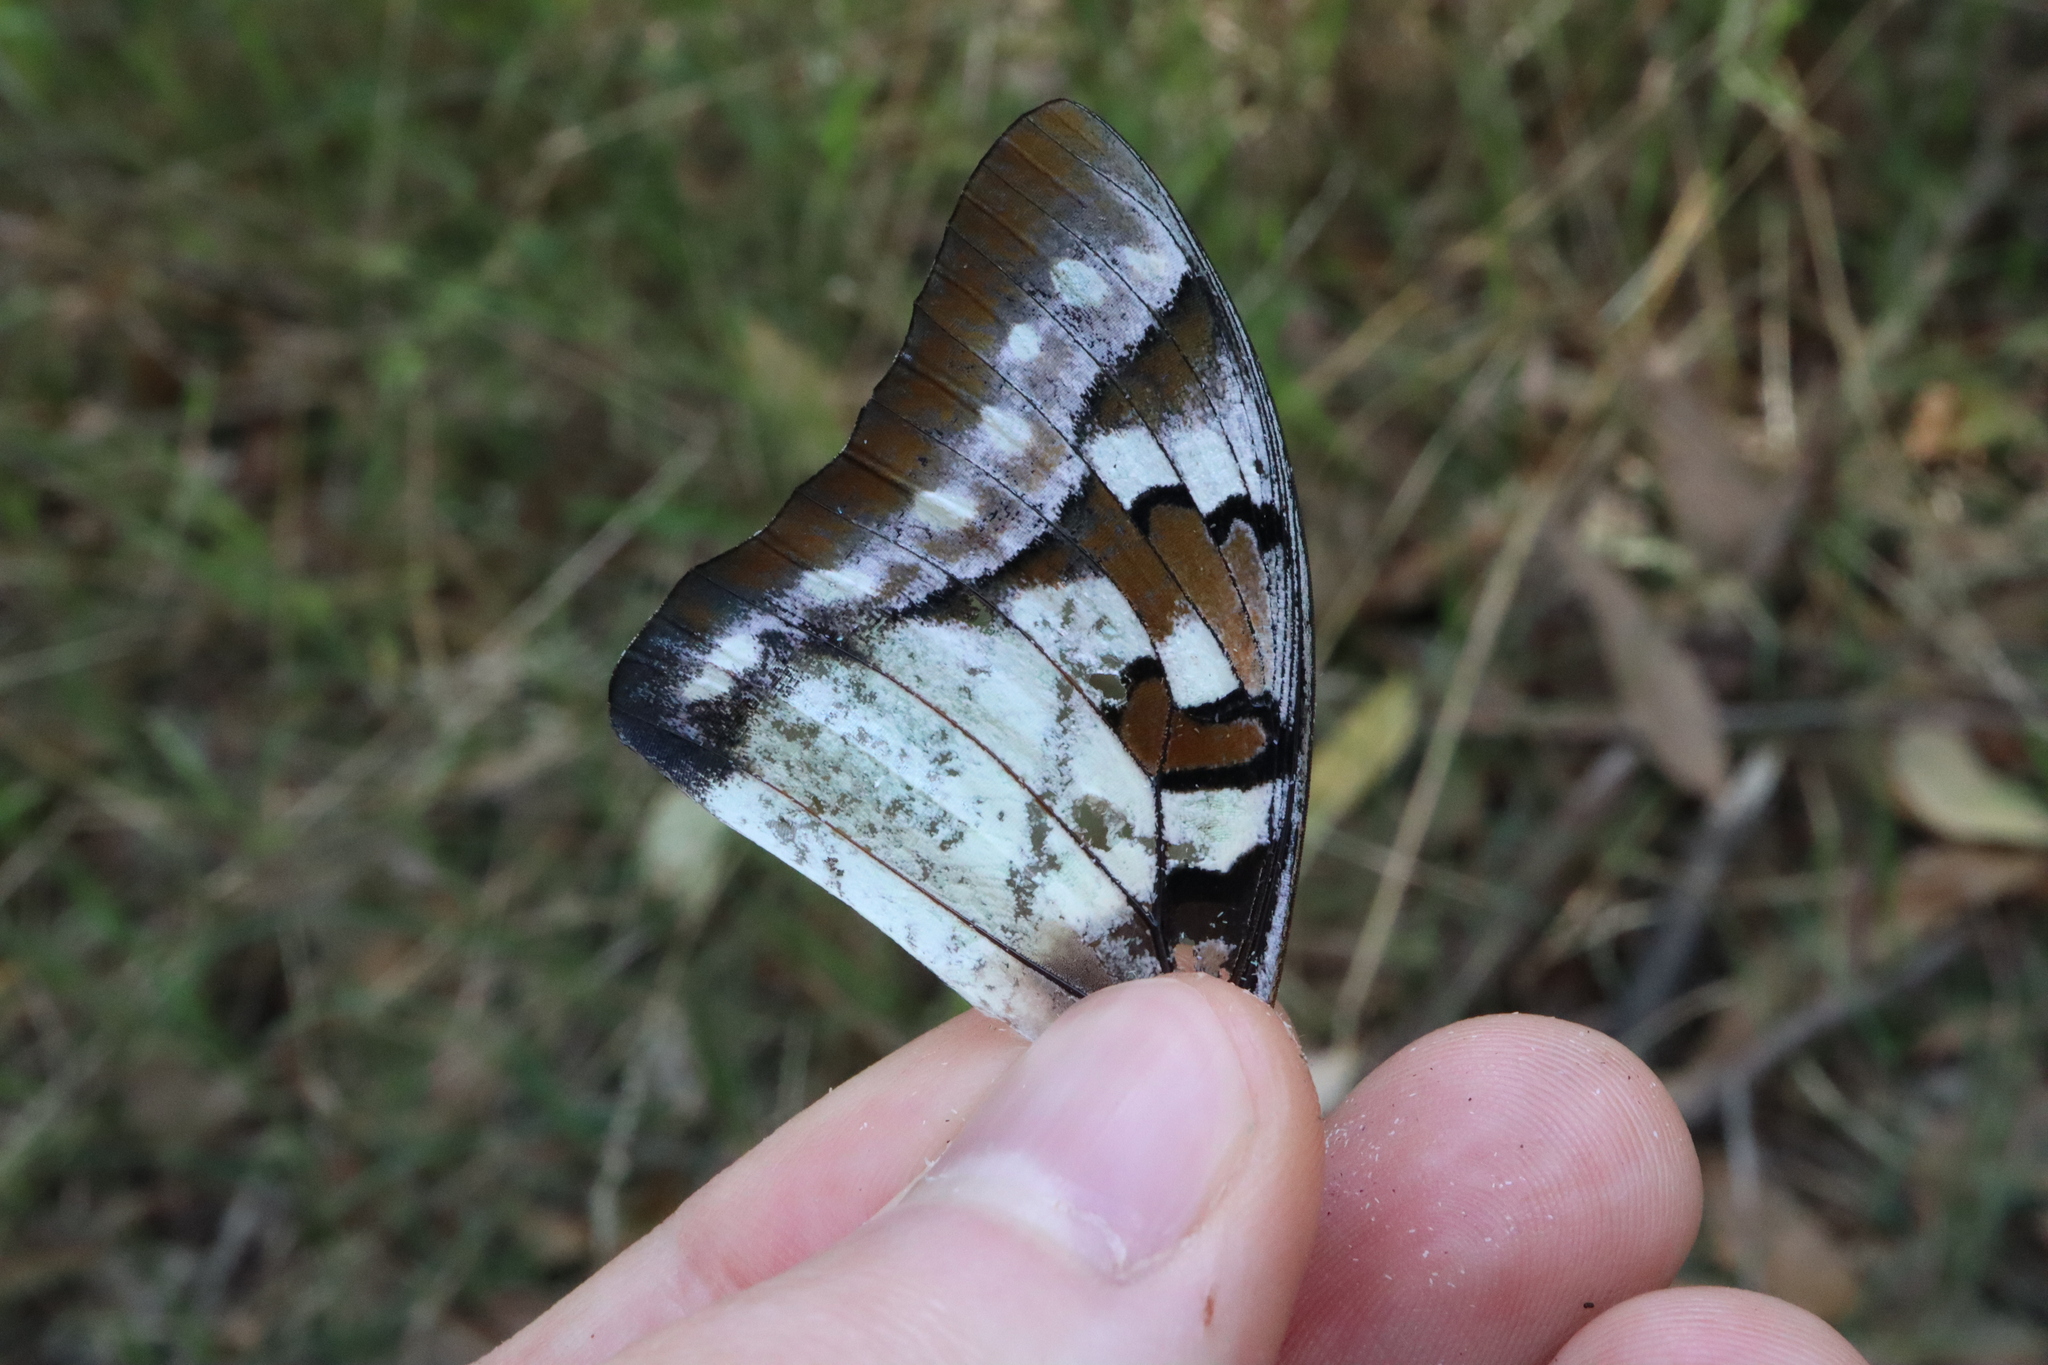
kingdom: Animalia
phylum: Arthropoda
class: Insecta
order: Lepidoptera
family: Nymphalidae
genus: Charaxes
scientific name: Charaxes
